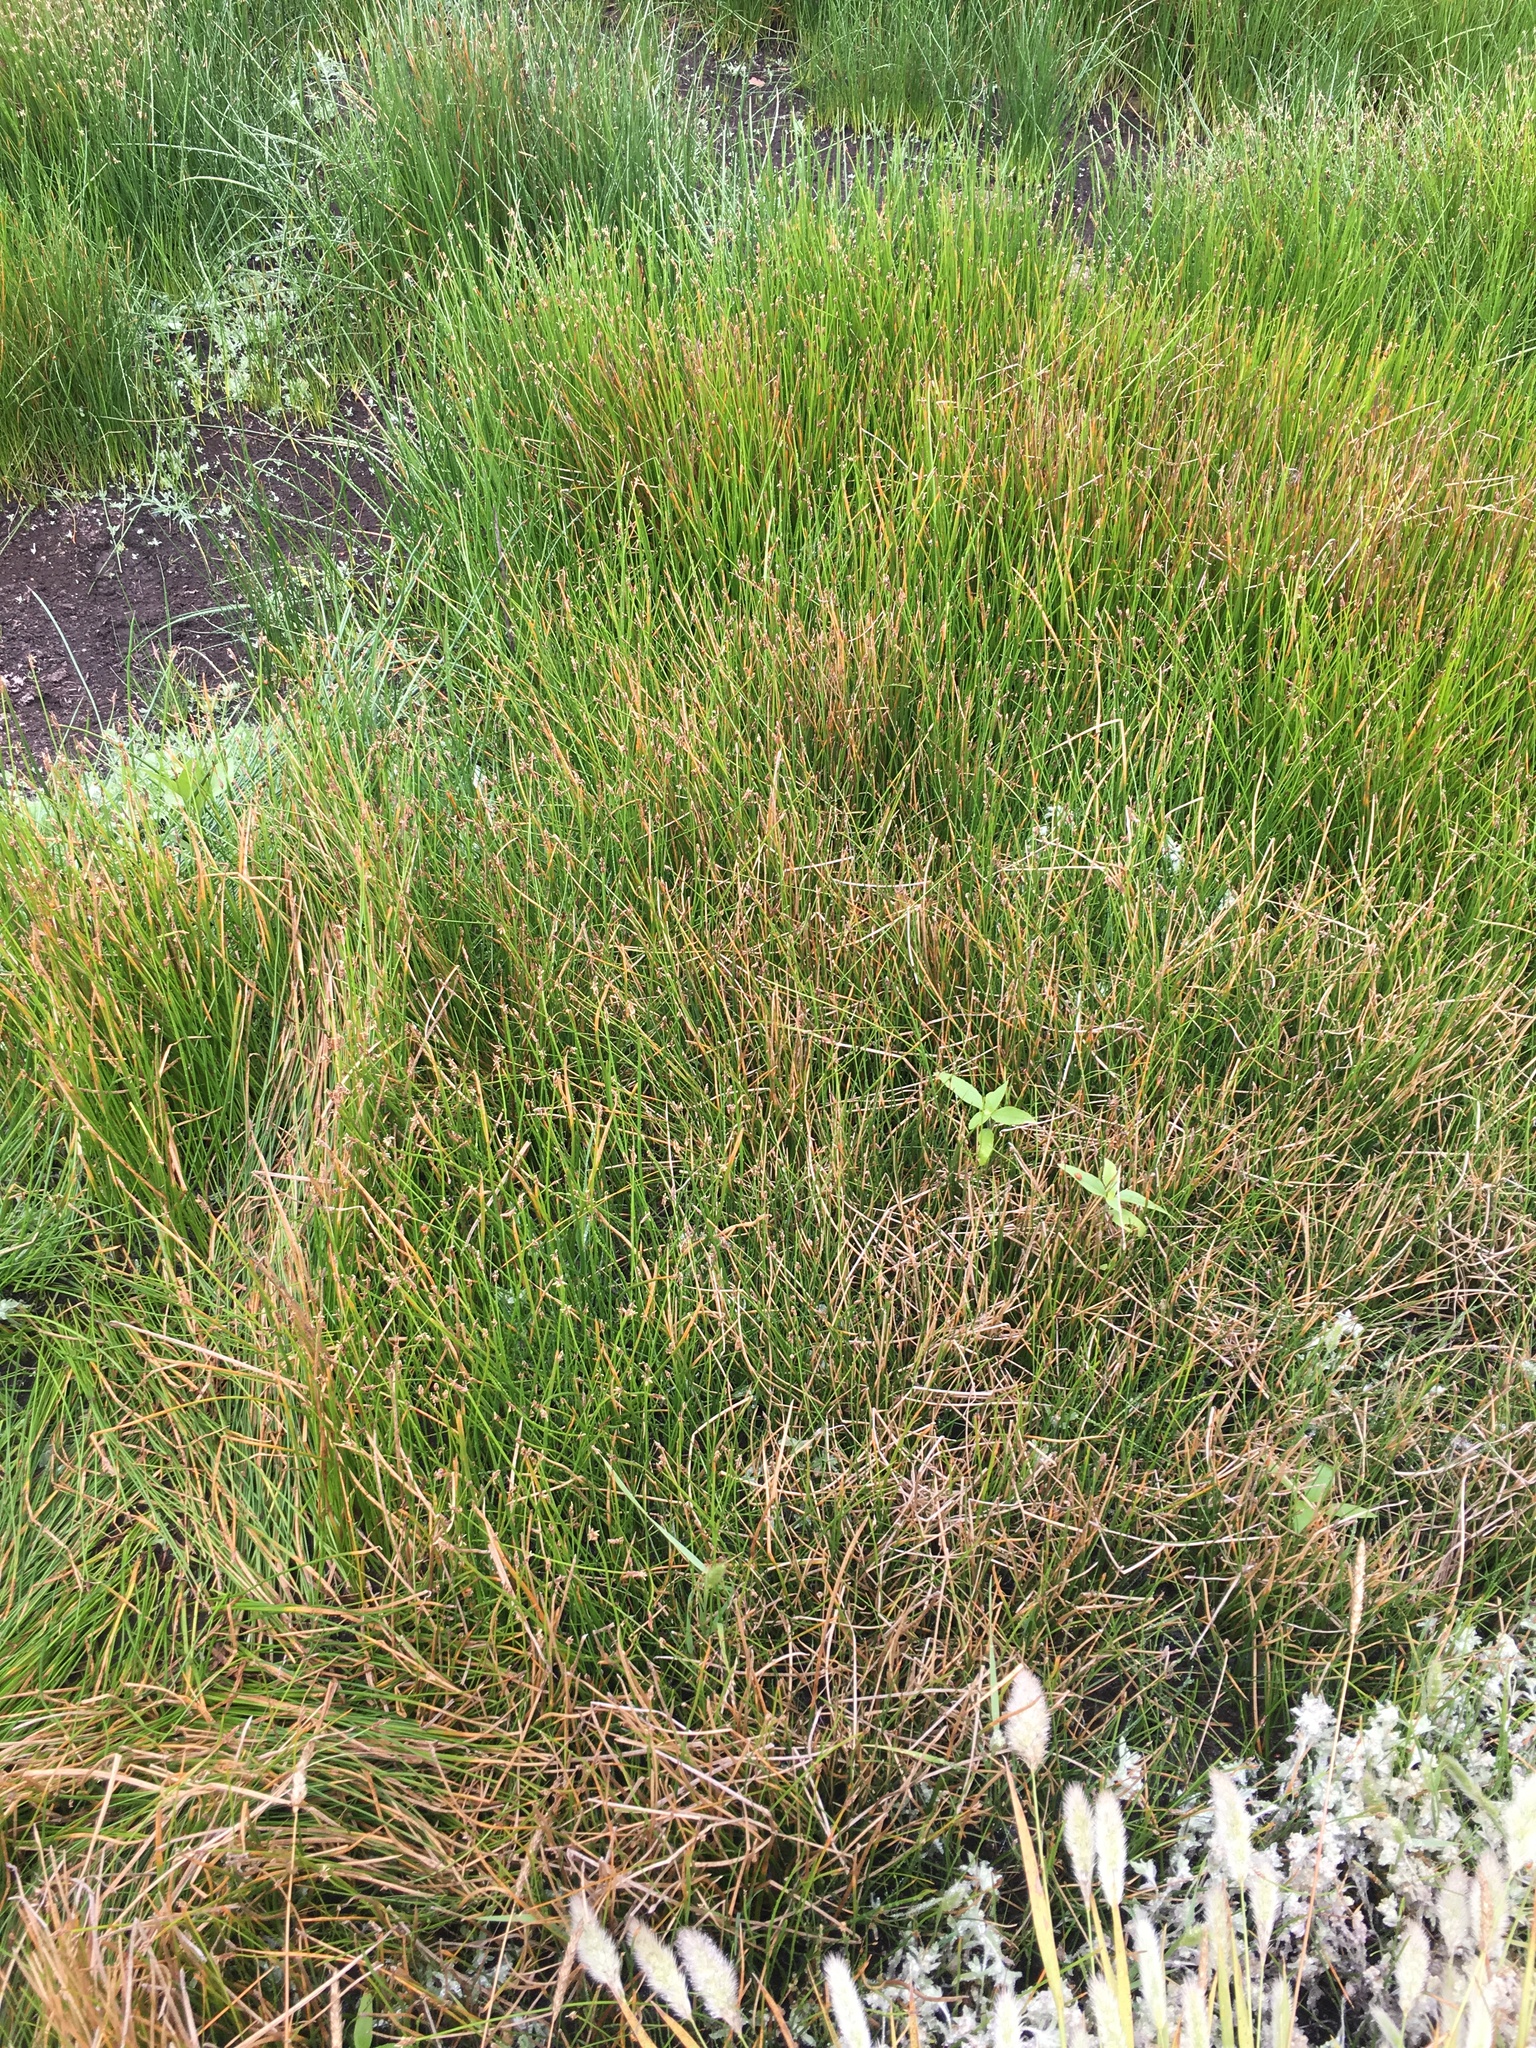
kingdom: Plantae
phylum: Tracheophyta
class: Liliopsida
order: Poales
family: Cyperaceae
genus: Eleocharis
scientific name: Eleocharis macrostachya
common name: Pale spikerush
